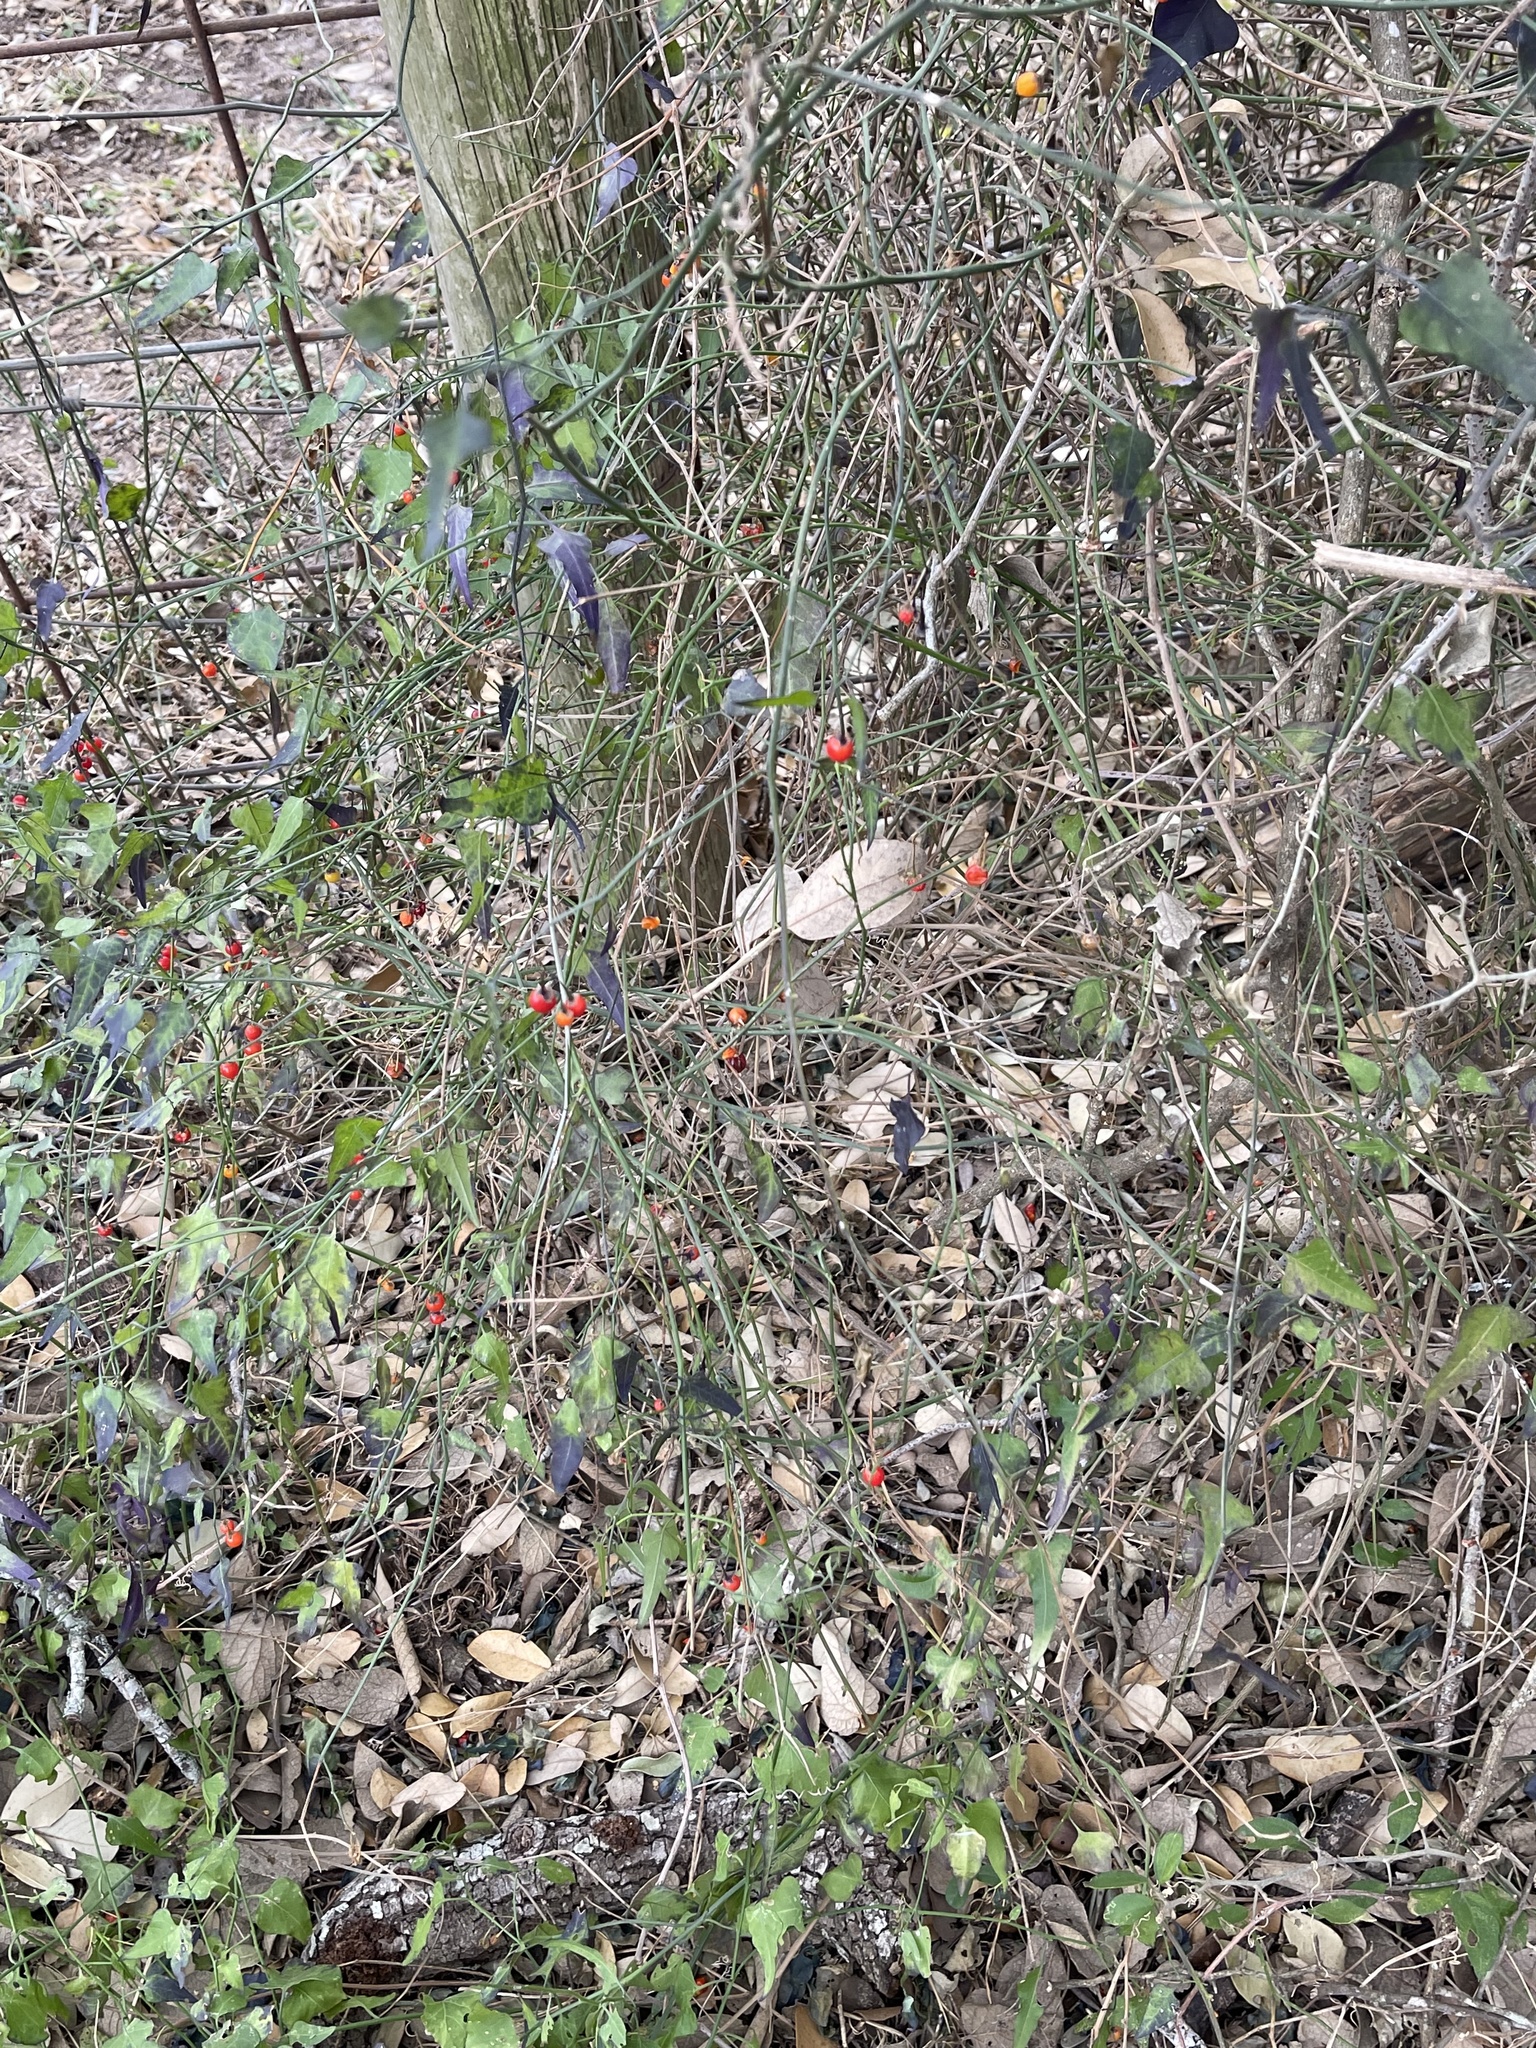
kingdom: Plantae
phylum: Tracheophyta
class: Magnoliopsida
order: Solanales
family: Solanaceae
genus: Solanum
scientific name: Solanum triquetrum
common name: Texas nightshade
